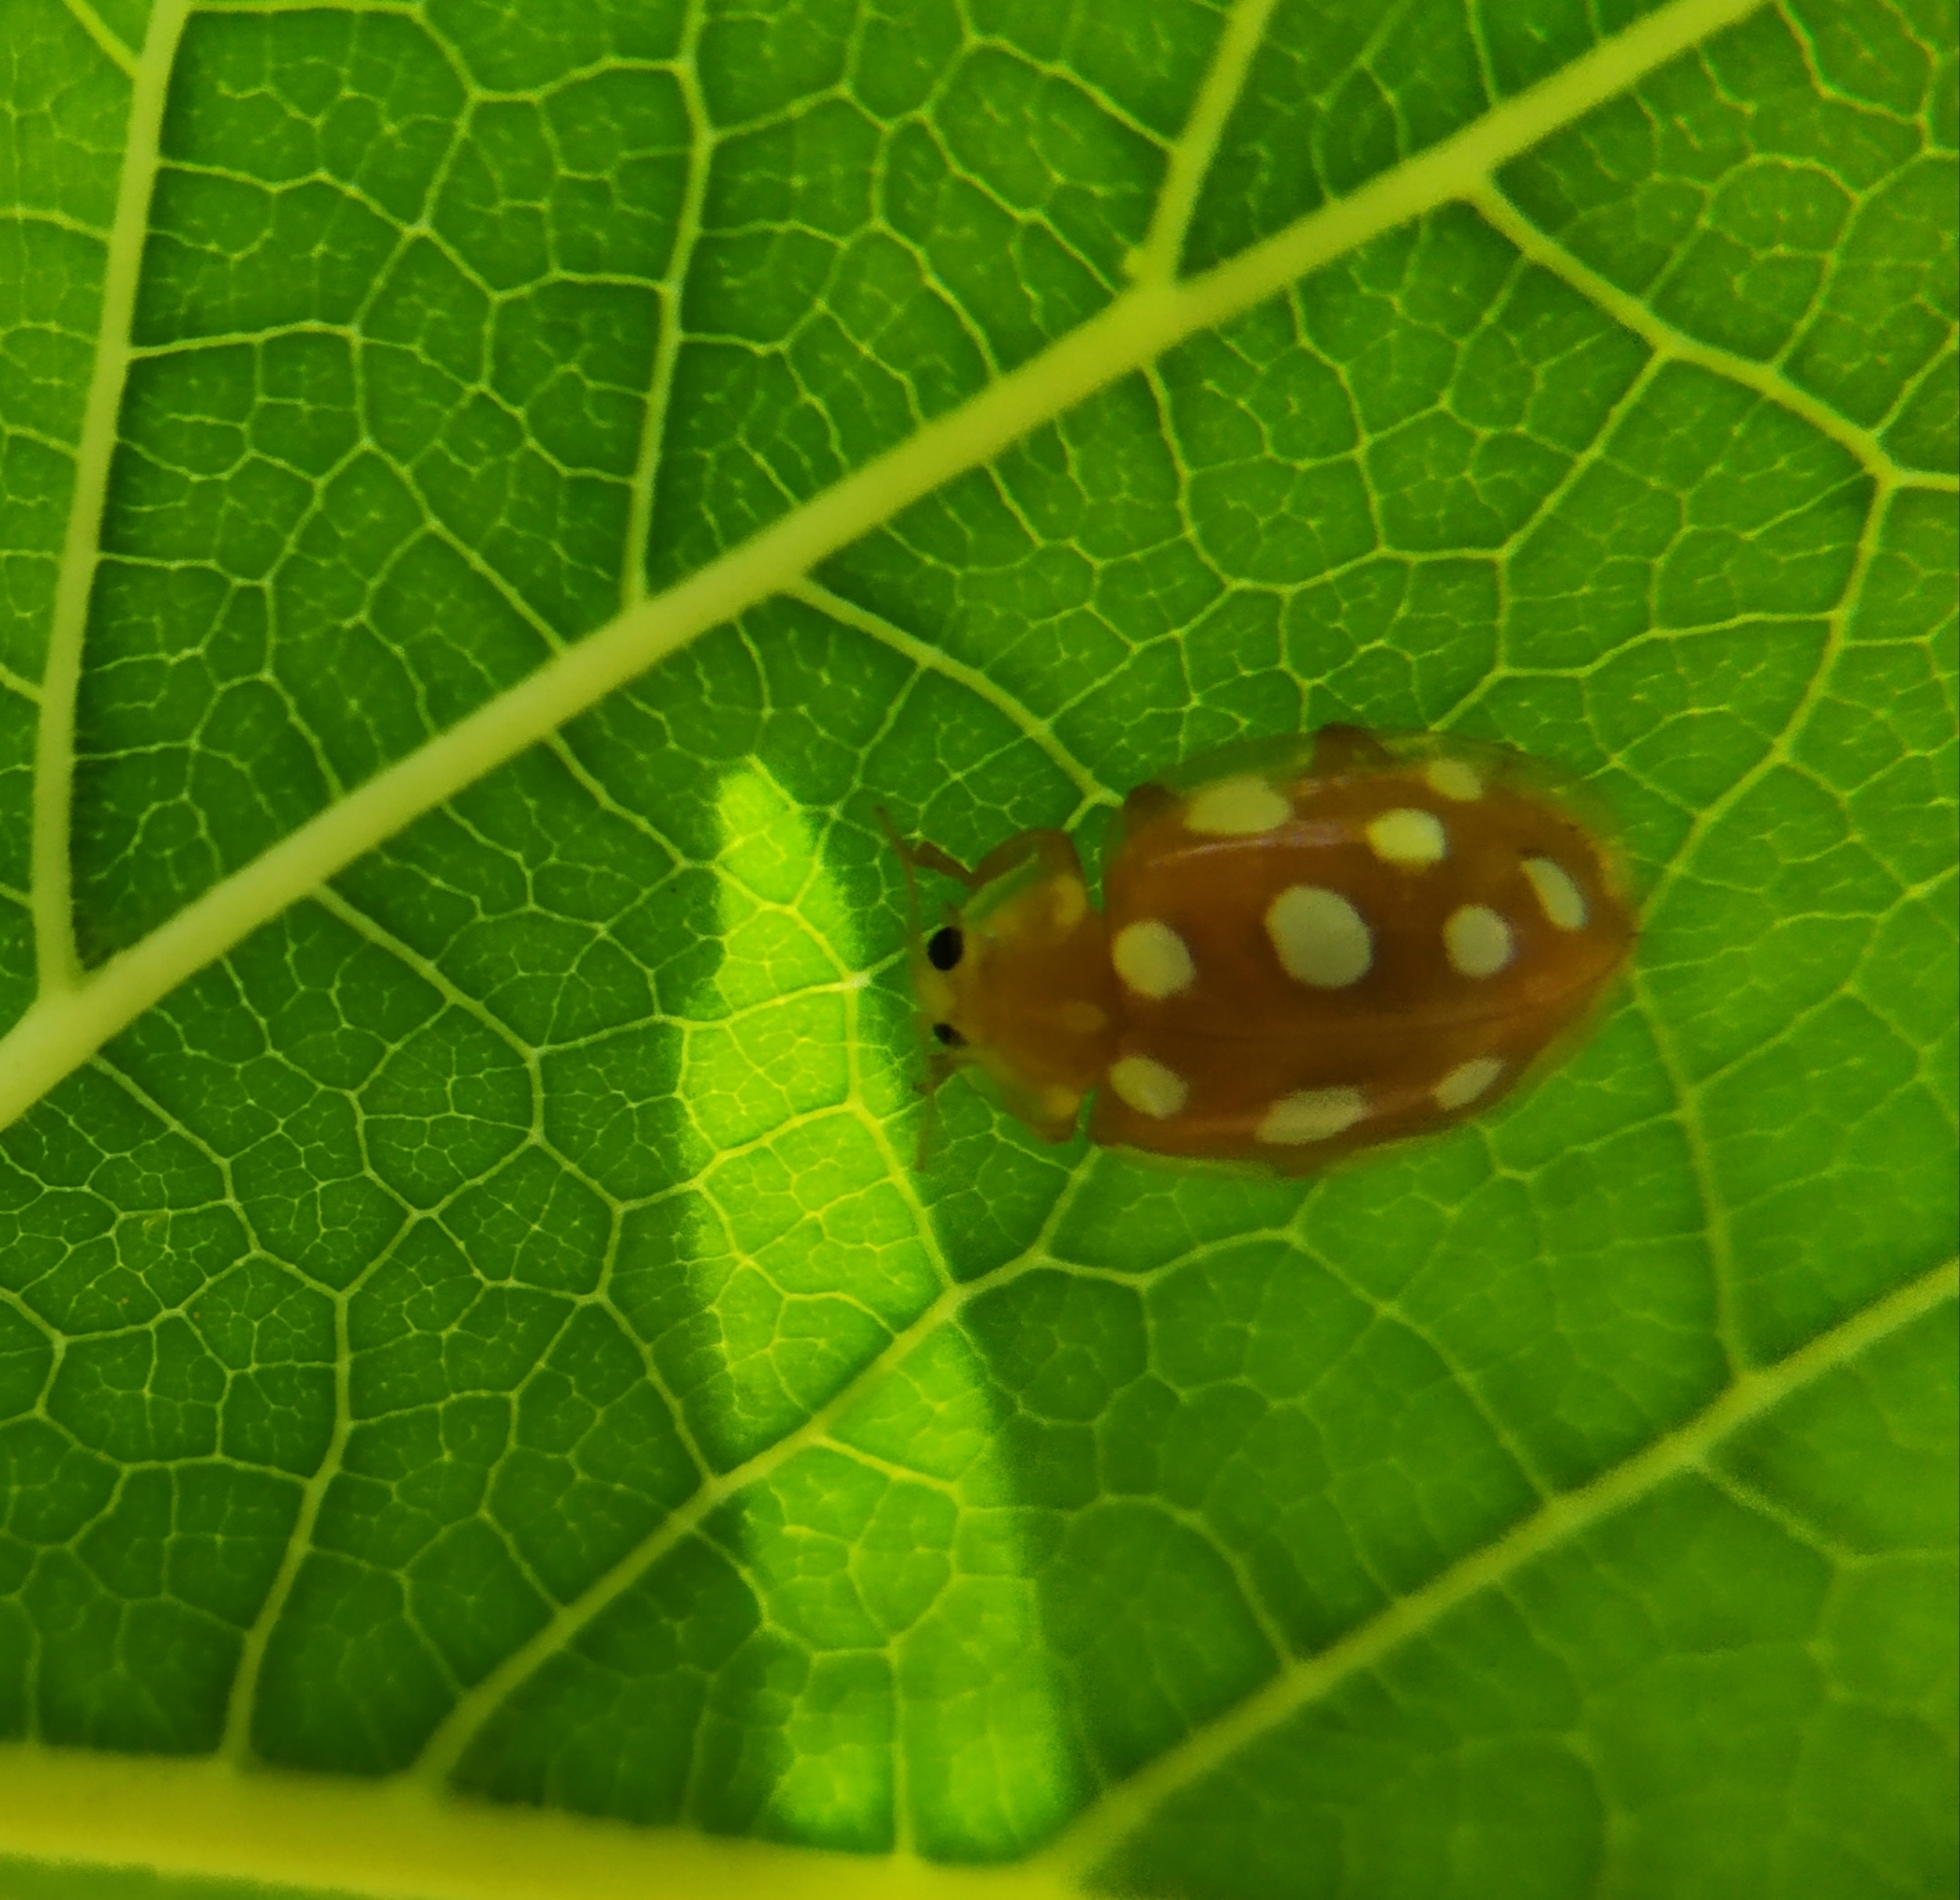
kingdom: Animalia
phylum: Arthropoda
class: Insecta
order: Coleoptera
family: Coccinellidae
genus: Halyzia
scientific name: Halyzia sedecimguttata
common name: Orange ladybird
